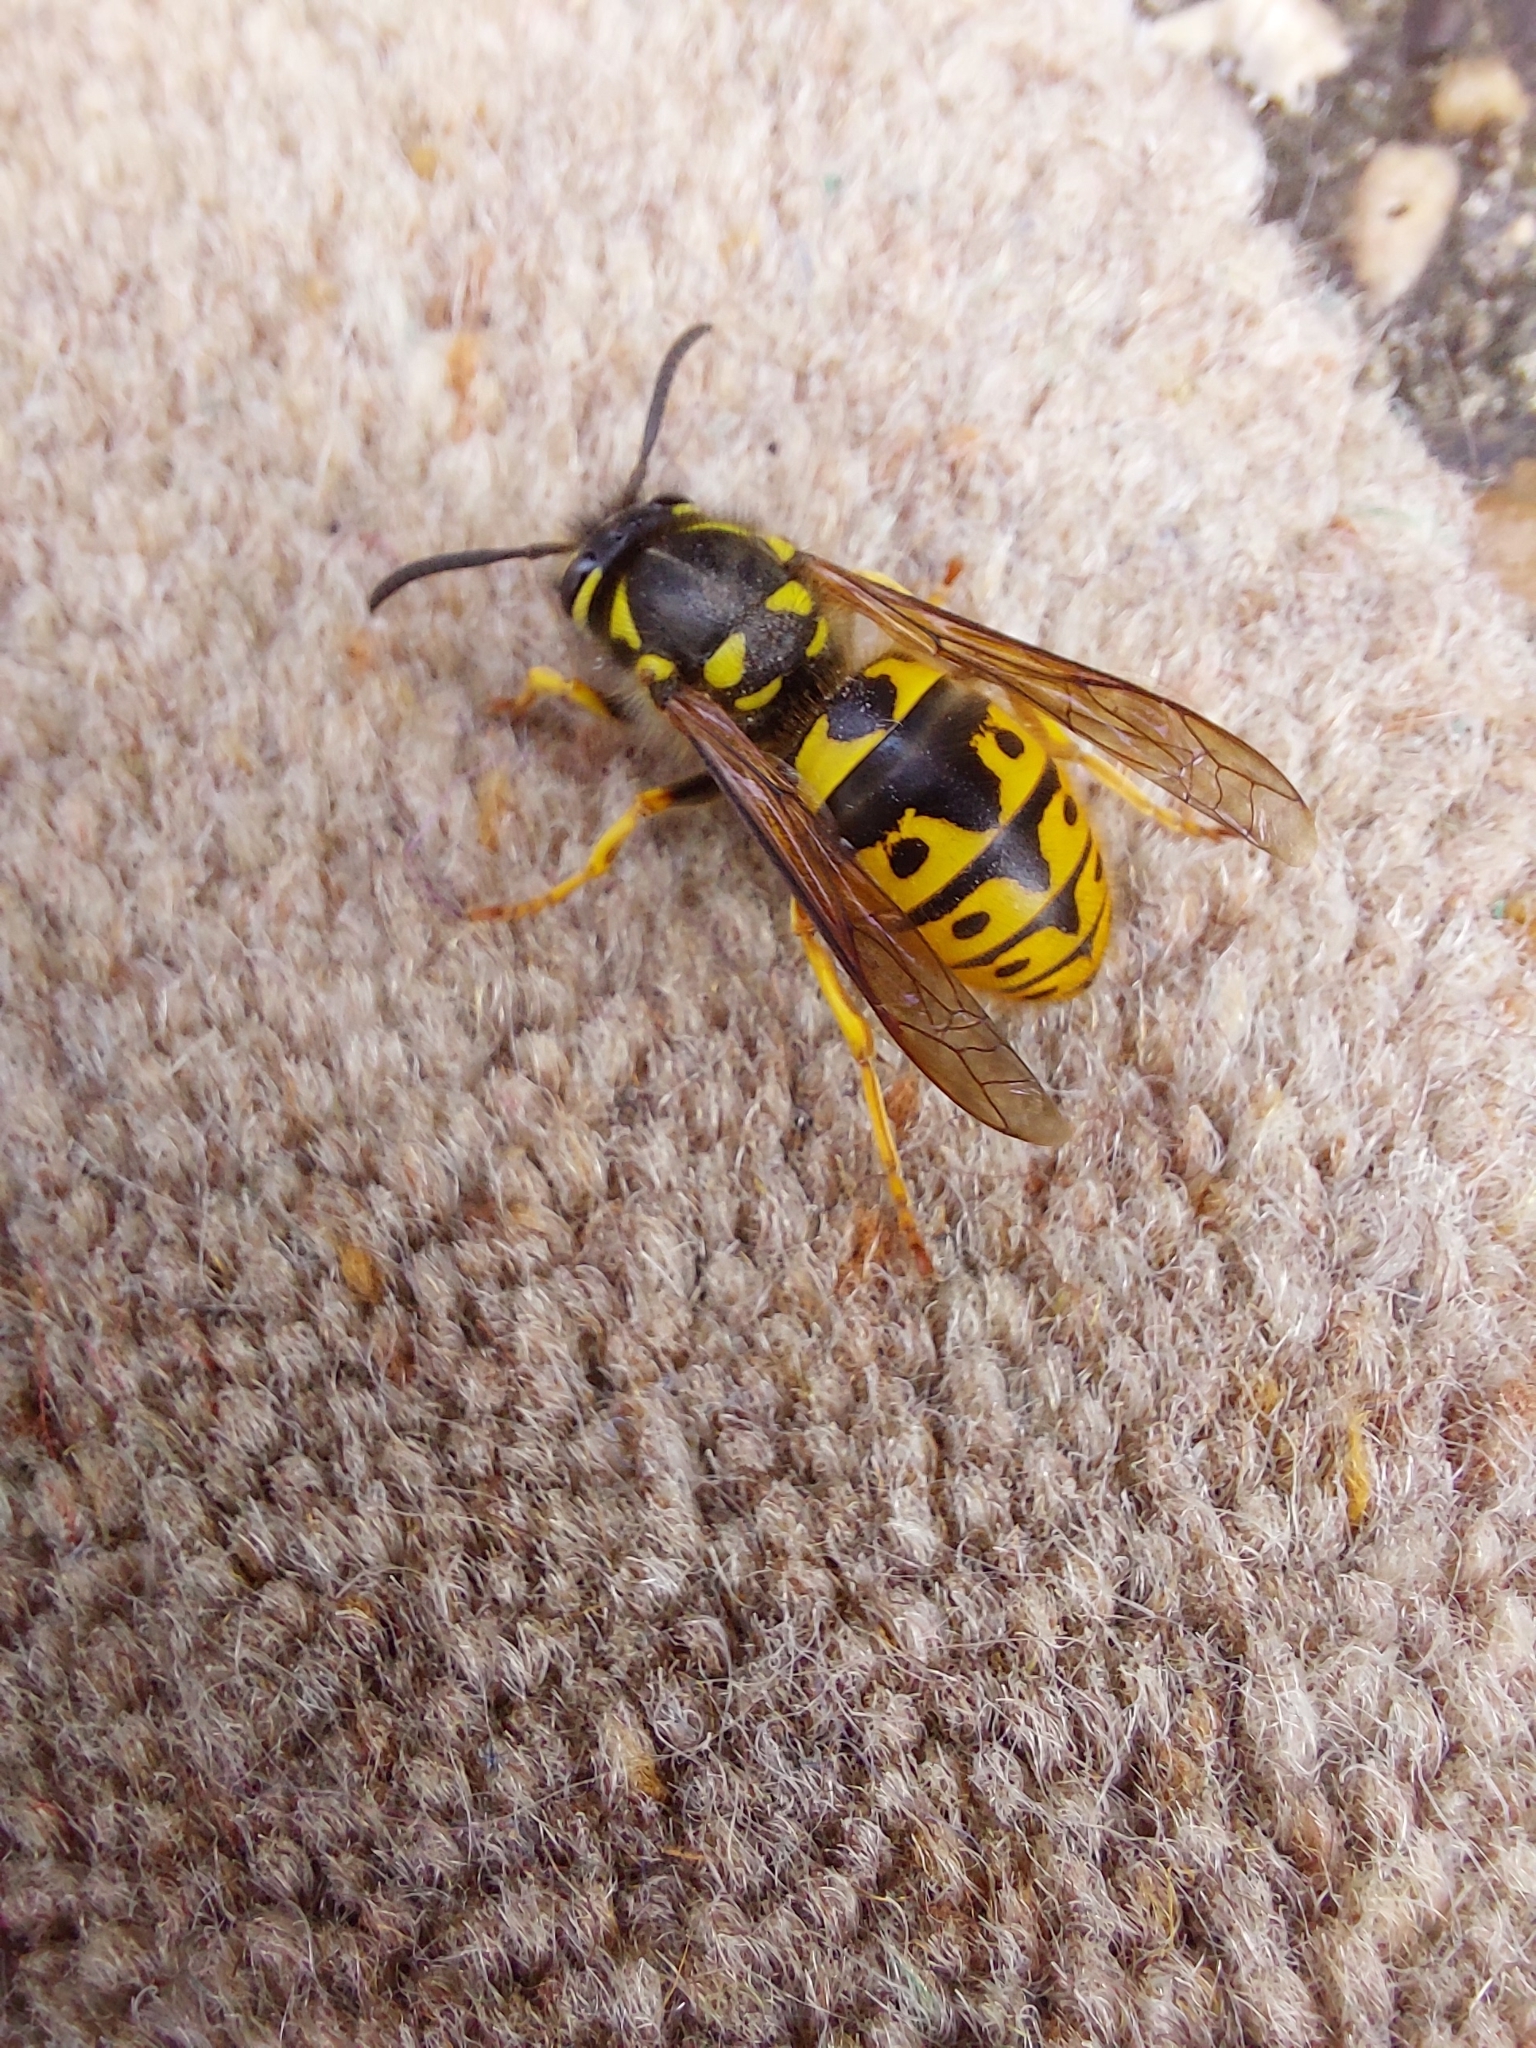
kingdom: Animalia
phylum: Arthropoda
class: Insecta
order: Hymenoptera
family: Vespidae
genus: Vespula
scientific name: Vespula germanica
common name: German wasp
